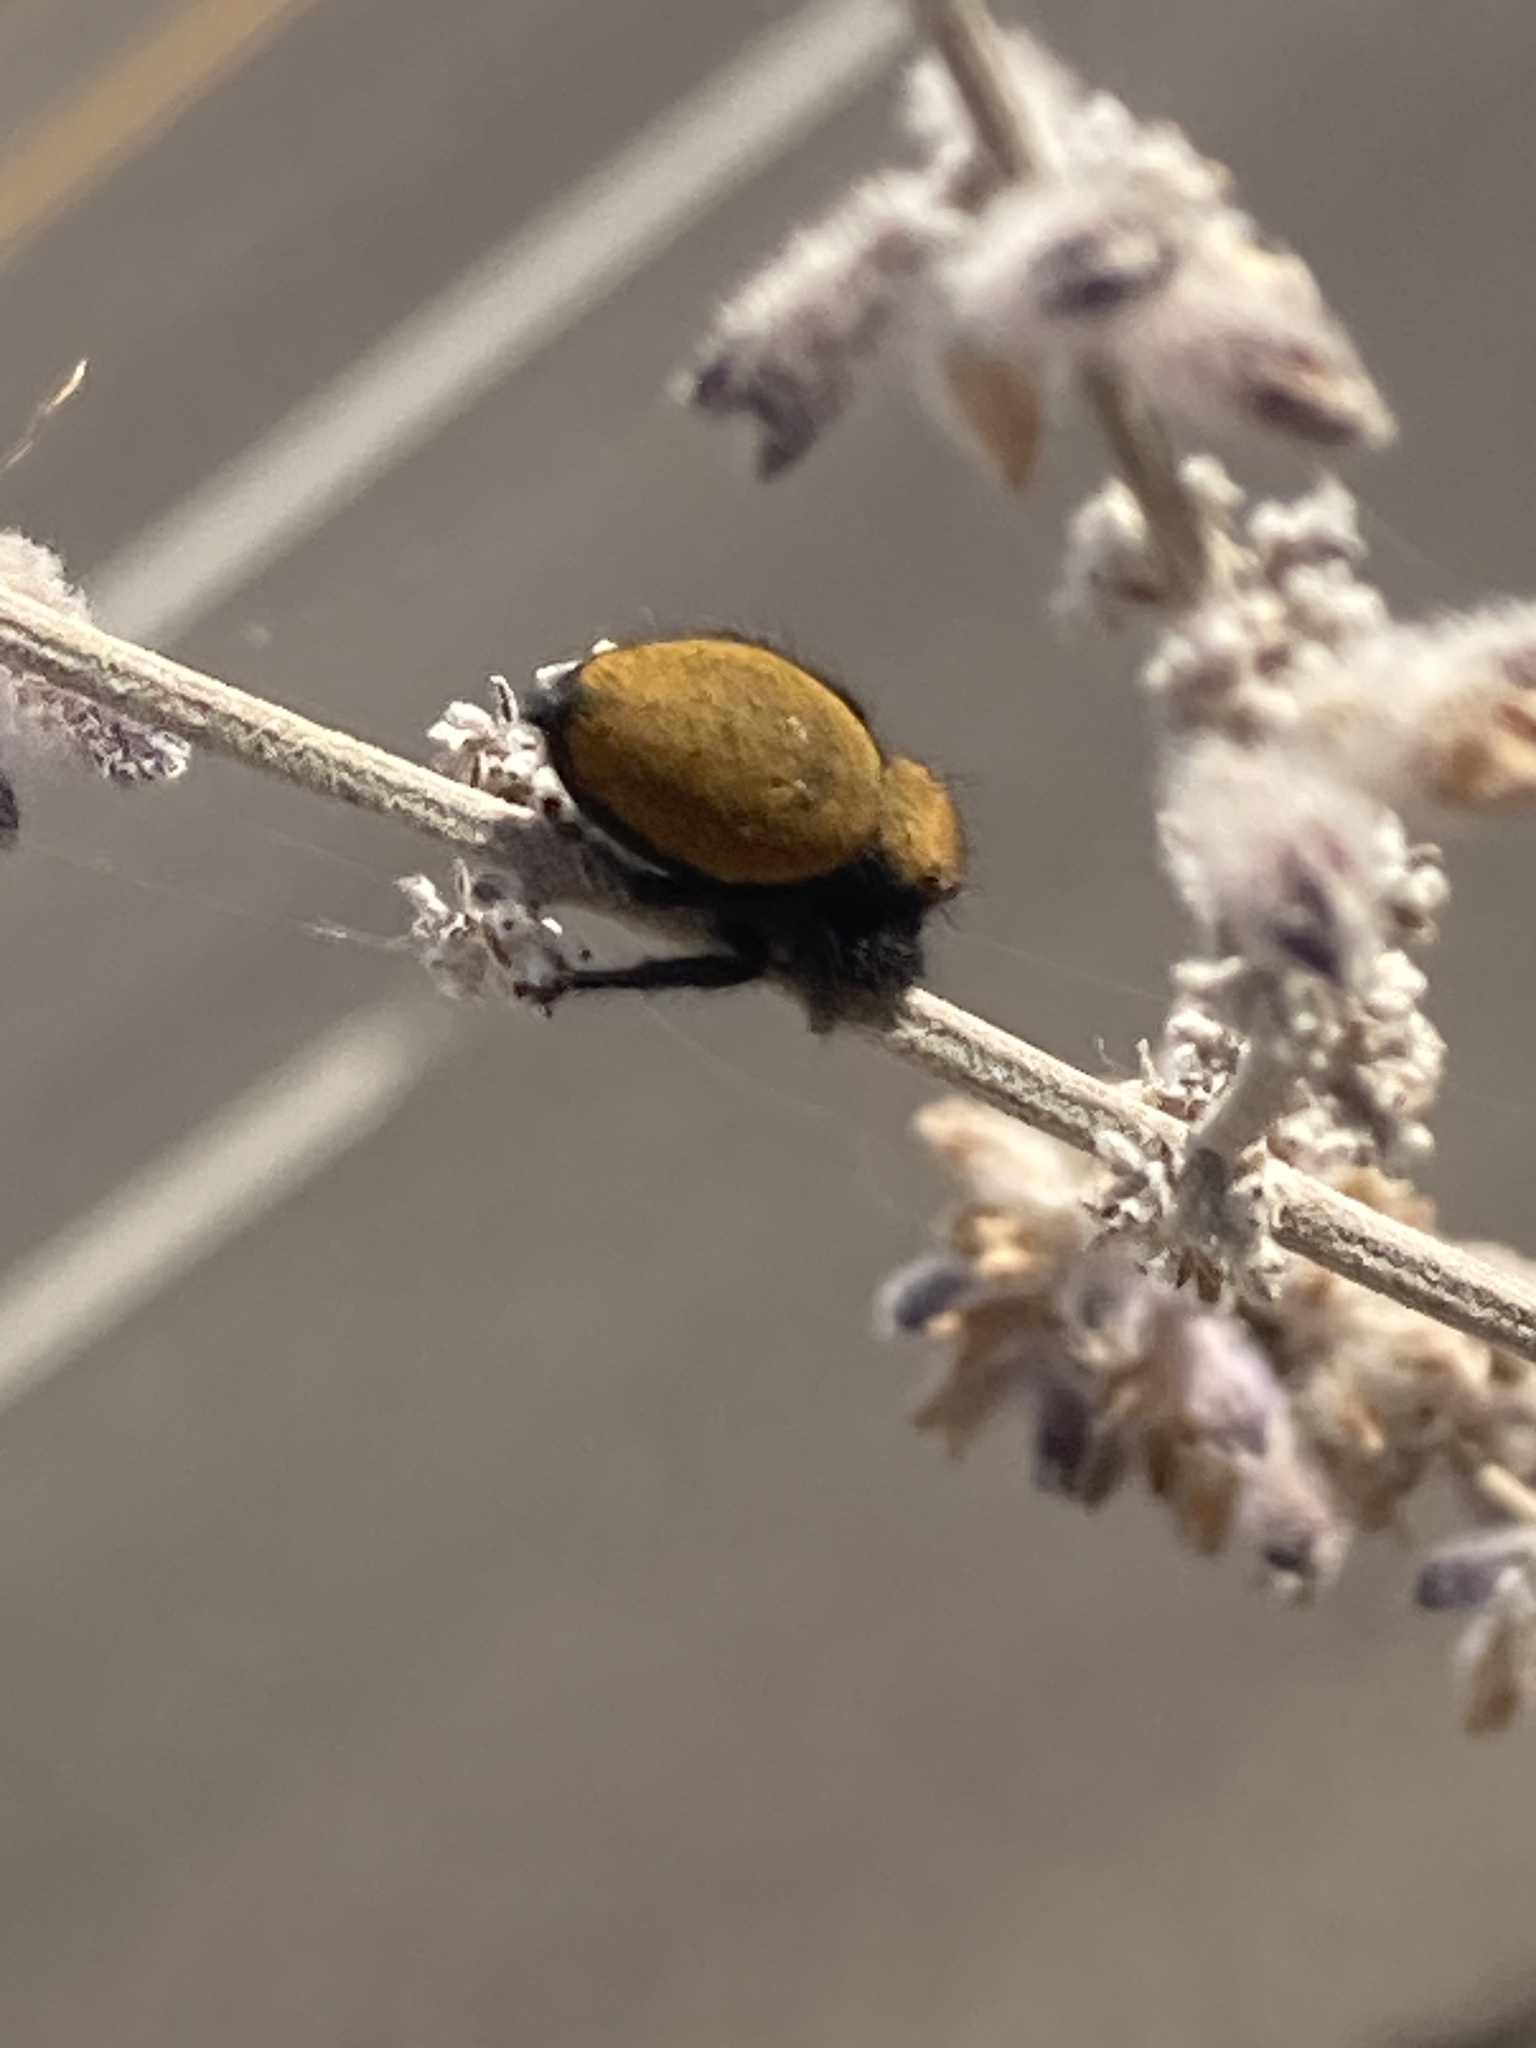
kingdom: Animalia
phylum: Arthropoda
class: Arachnida
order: Araneae
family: Salticidae
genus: Phidippus
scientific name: Phidippus apacheanus
